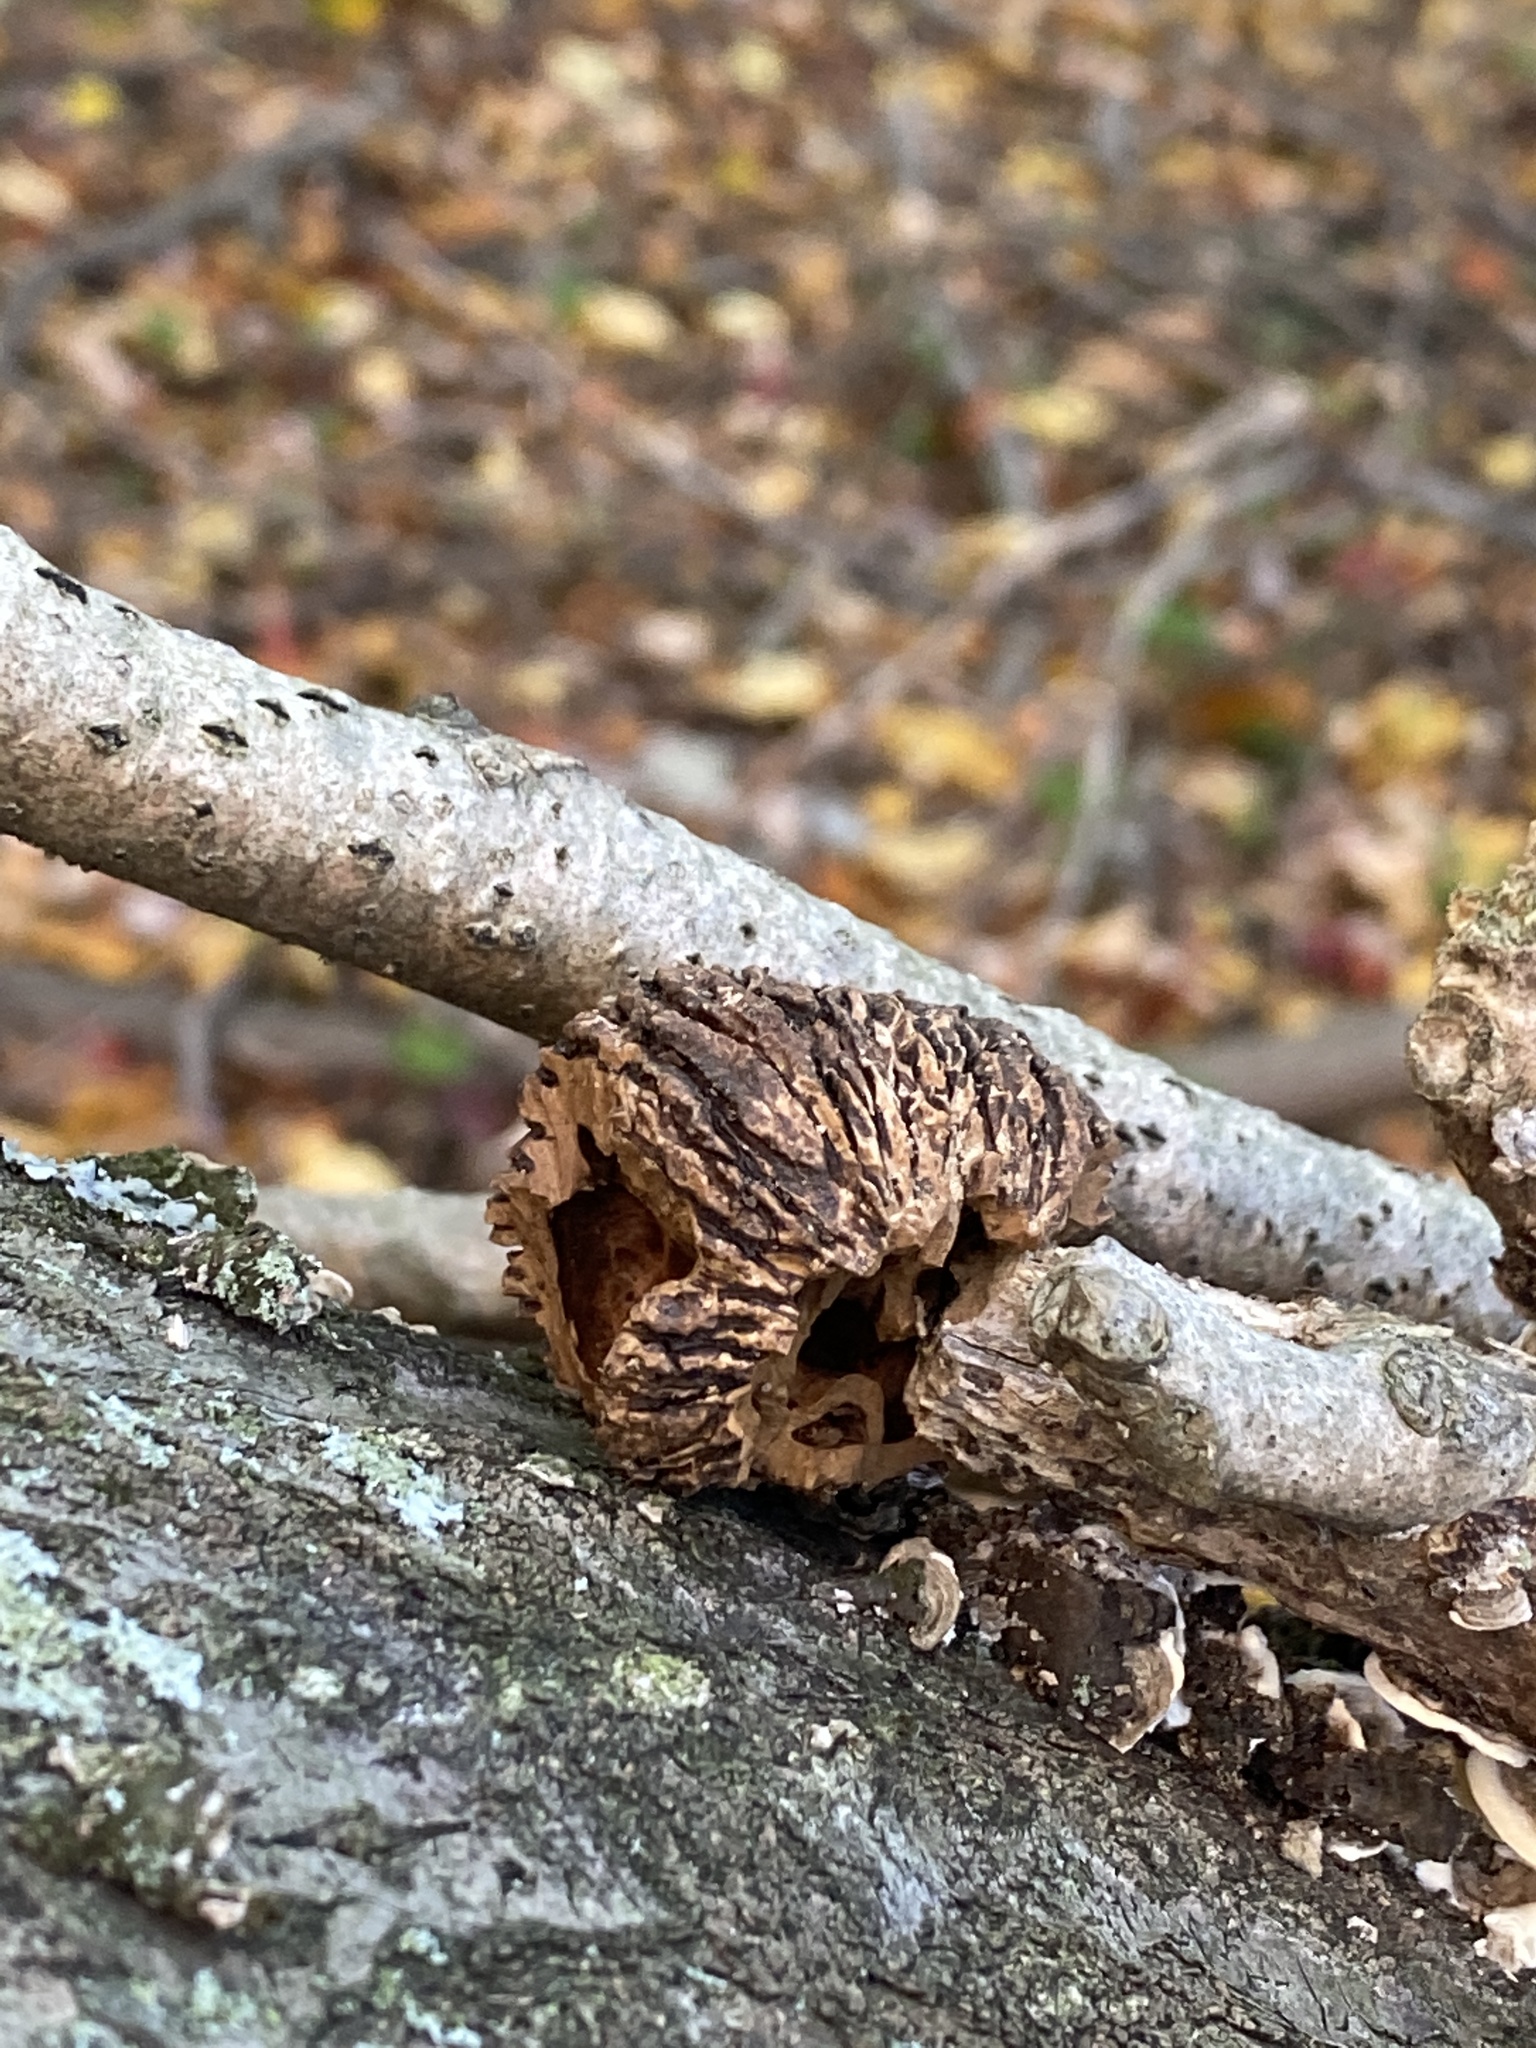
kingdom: Plantae
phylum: Tracheophyta
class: Magnoliopsida
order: Fagales
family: Juglandaceae
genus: Juglans
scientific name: Juglans nigra
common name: Black walnut
